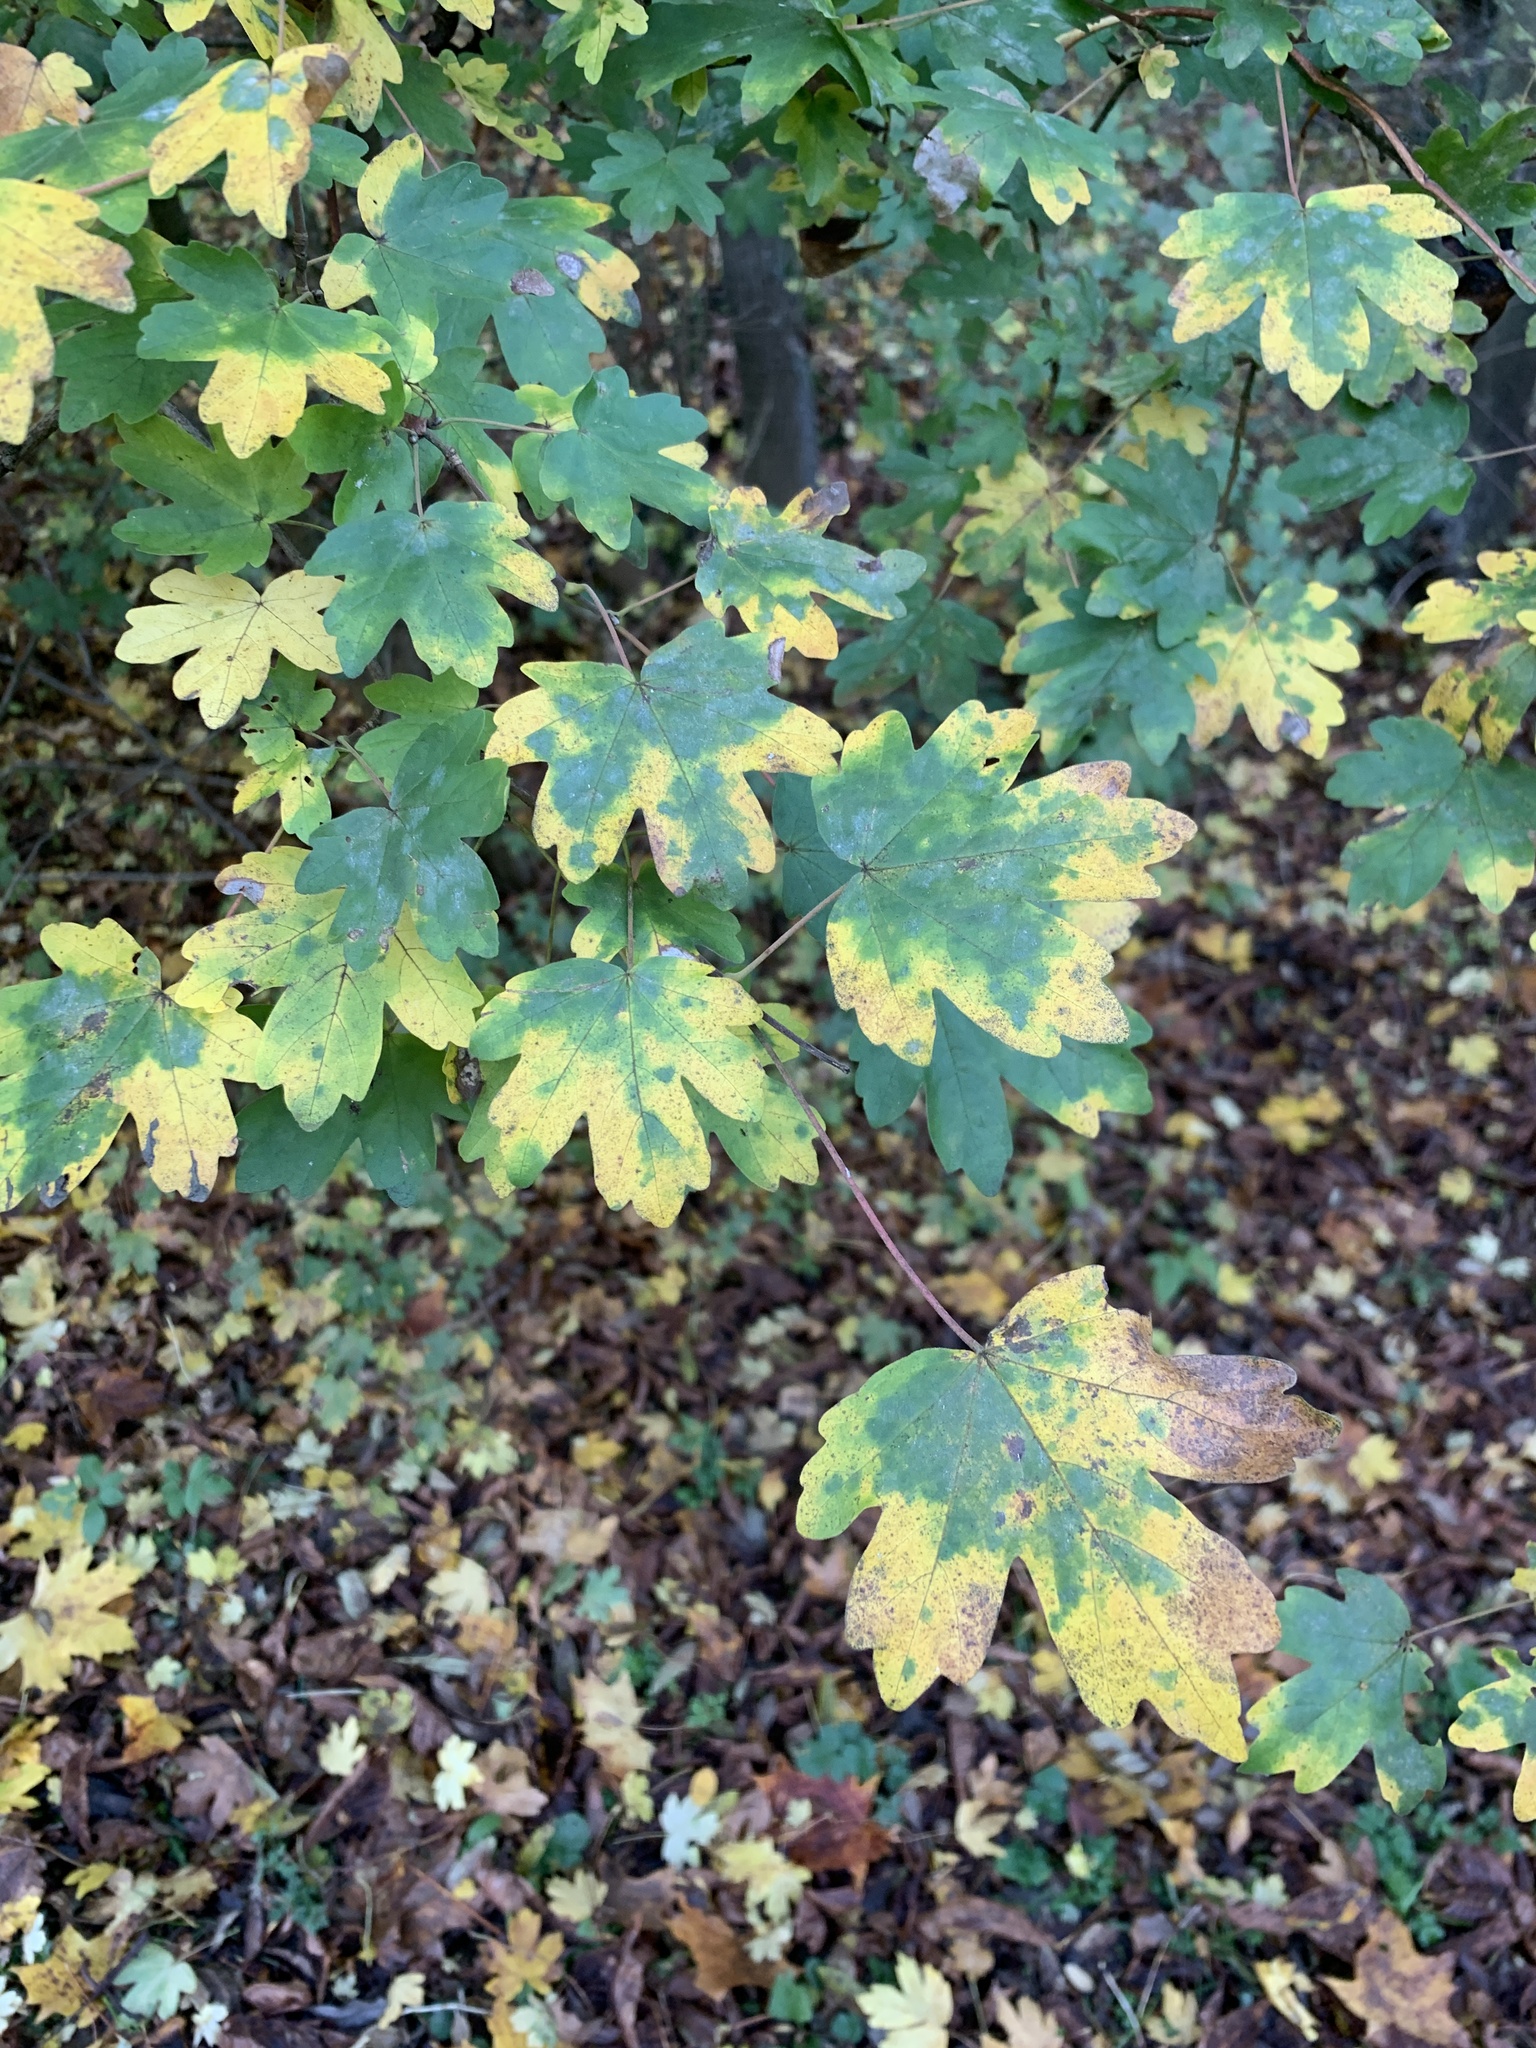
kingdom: Plantae
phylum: Tracheophyta
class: Magnoliopsida
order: Sapindales
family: Sapindaceae
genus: Acer
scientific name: Acer campestre
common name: Field maple
